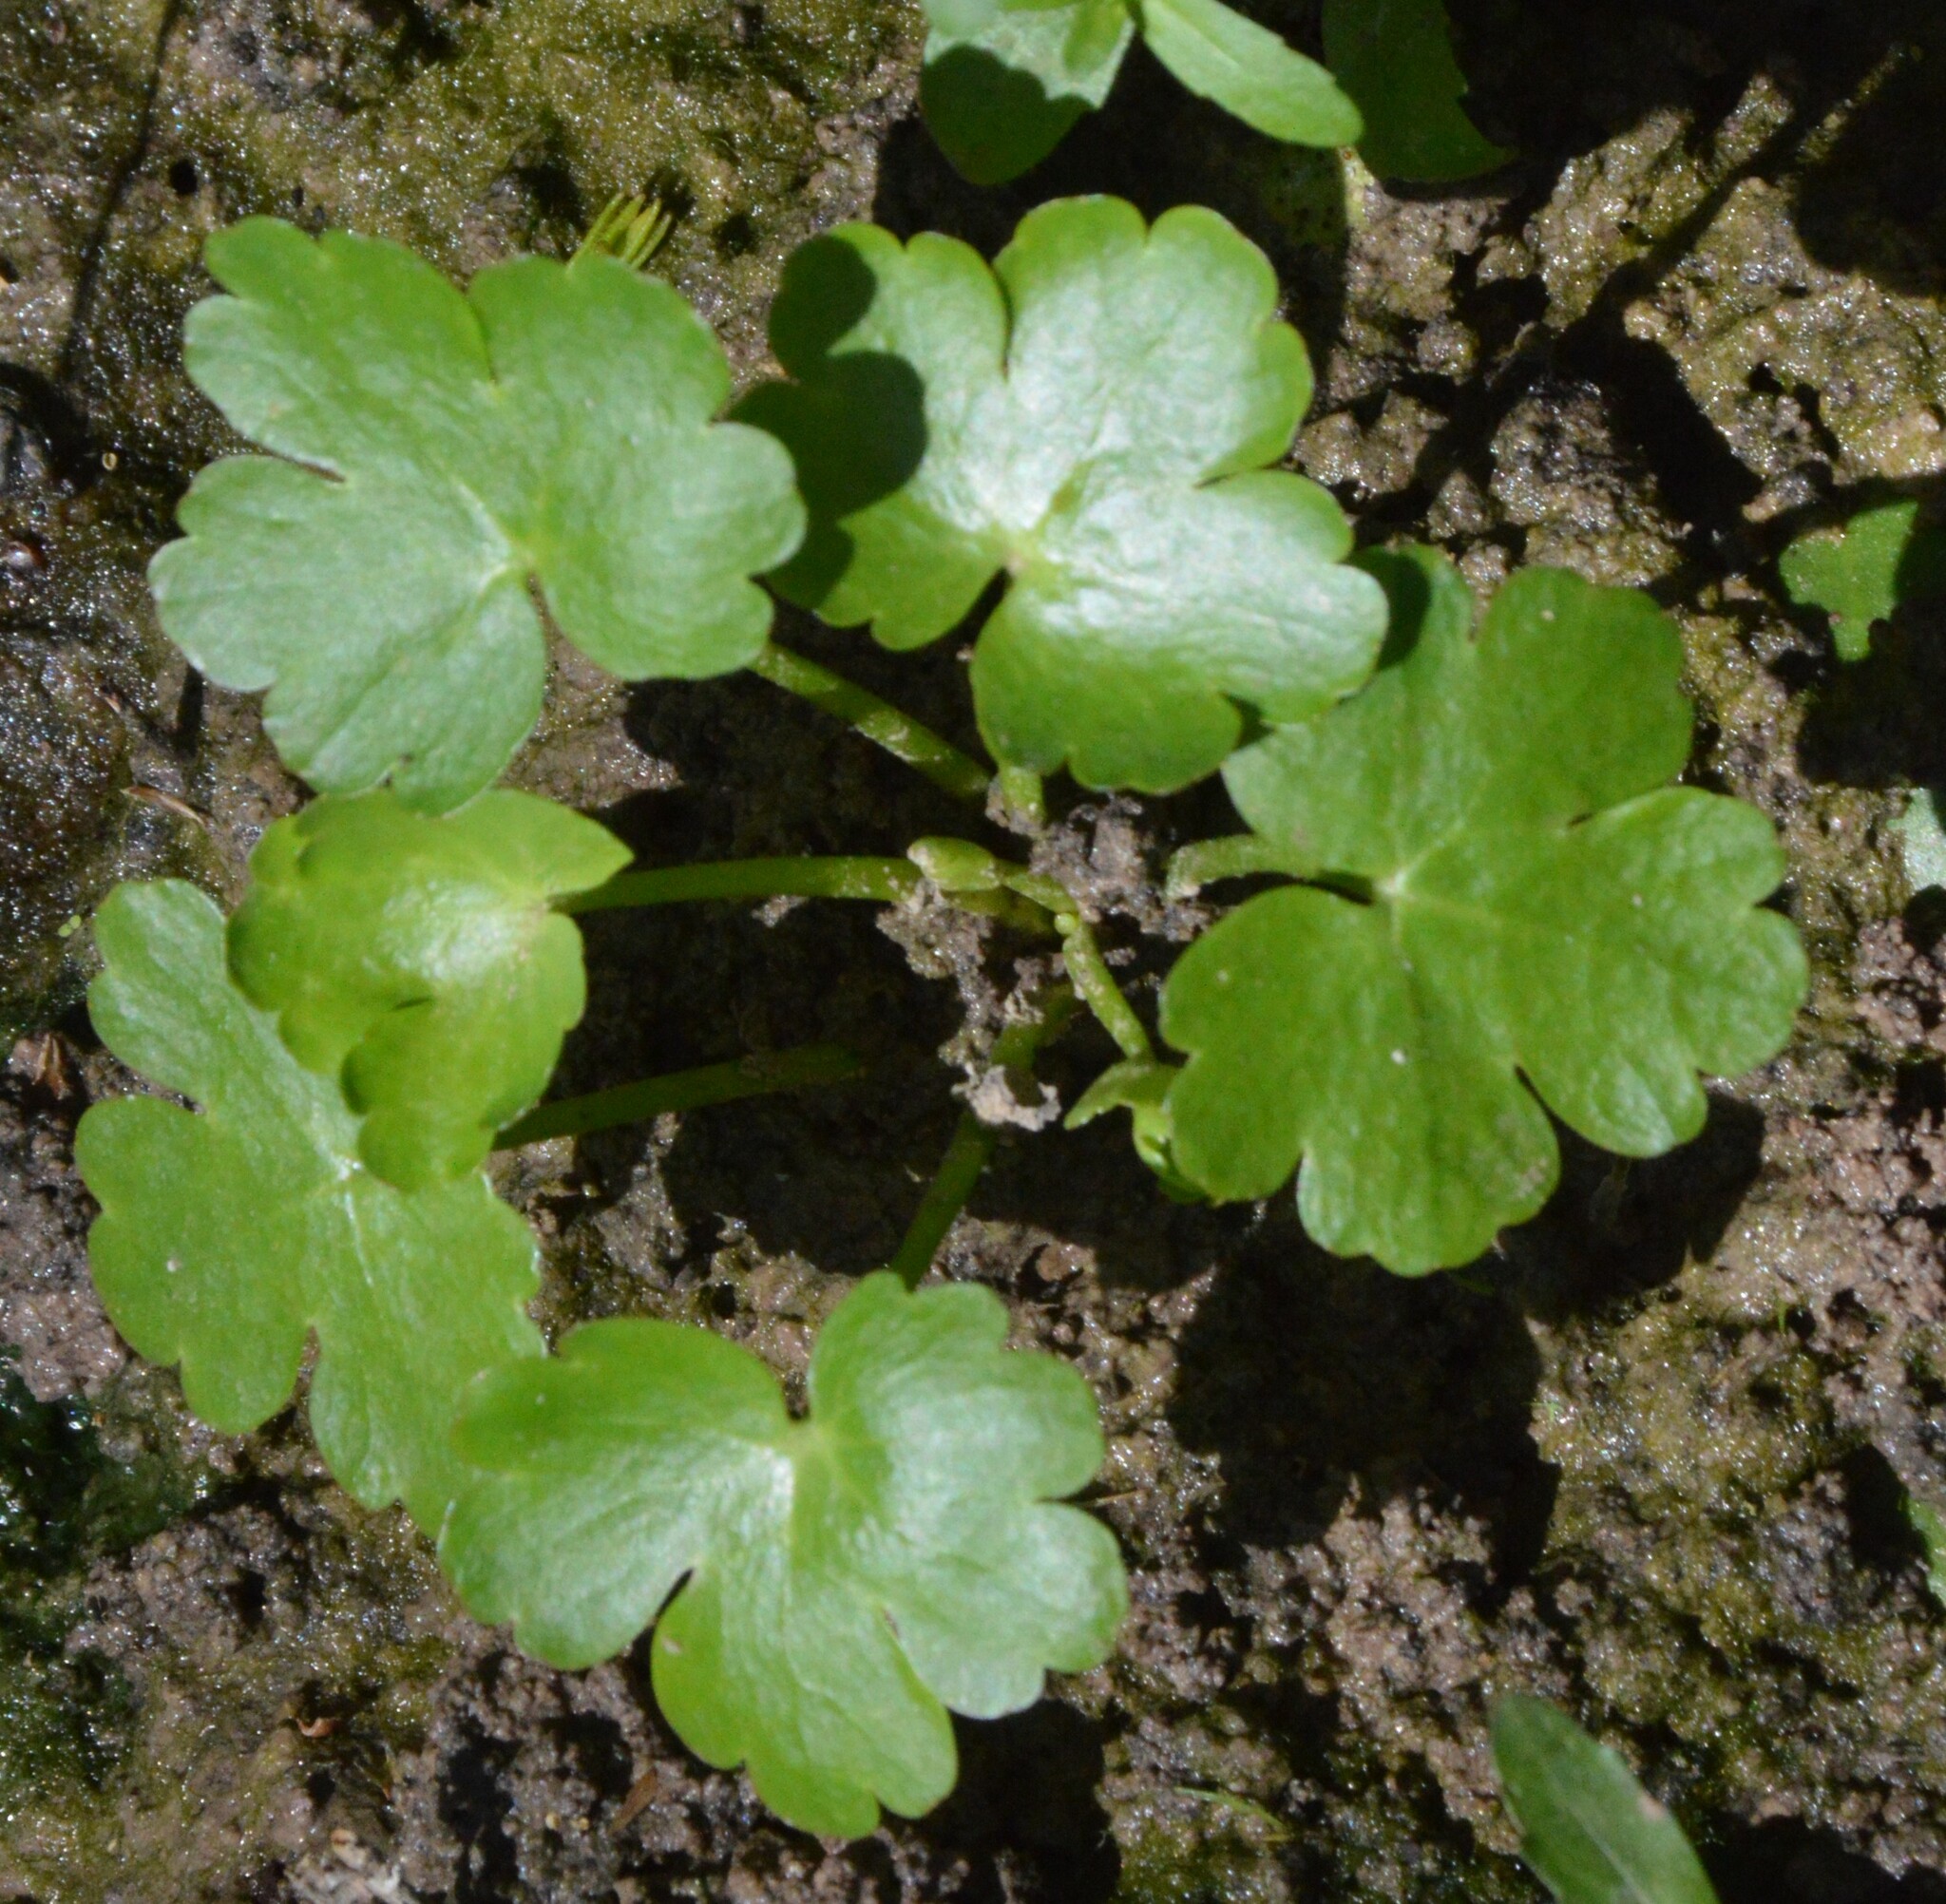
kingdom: Plantae
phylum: Tracheophyta
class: Magnoliopsida
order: Ranunculales
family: Ranunculaceae
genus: Ranunculus
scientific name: Ranunculus sceleratus
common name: Celery-leaved buttercup
